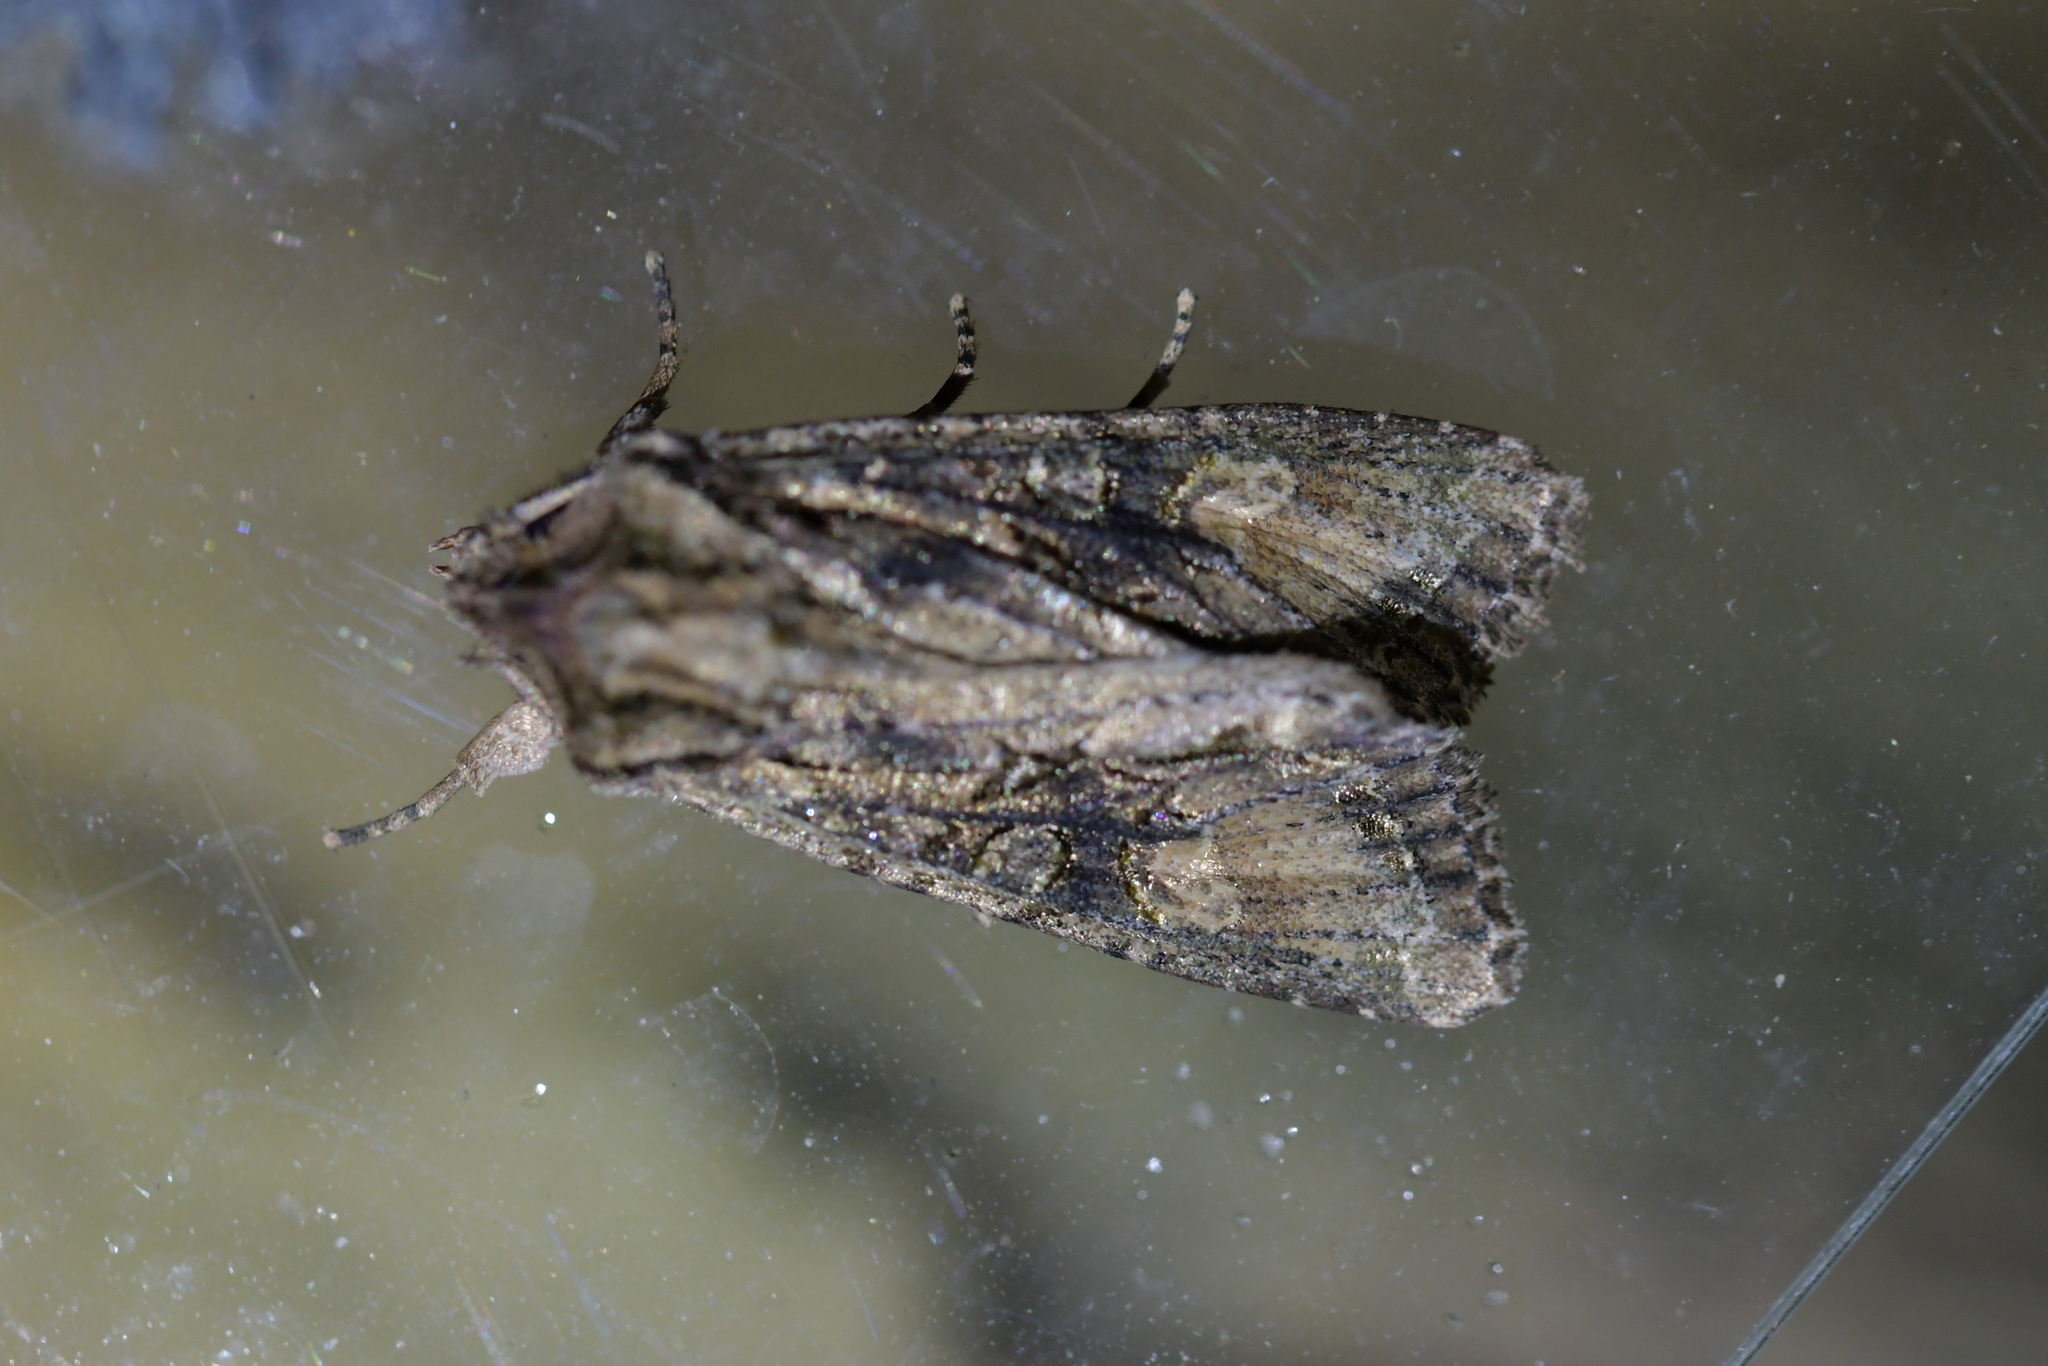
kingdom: Animalia
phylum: Arthropoda
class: Insecta
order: Lepidoptera
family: Noctuidae
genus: Ichneutica
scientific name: Ichneutica mutans
